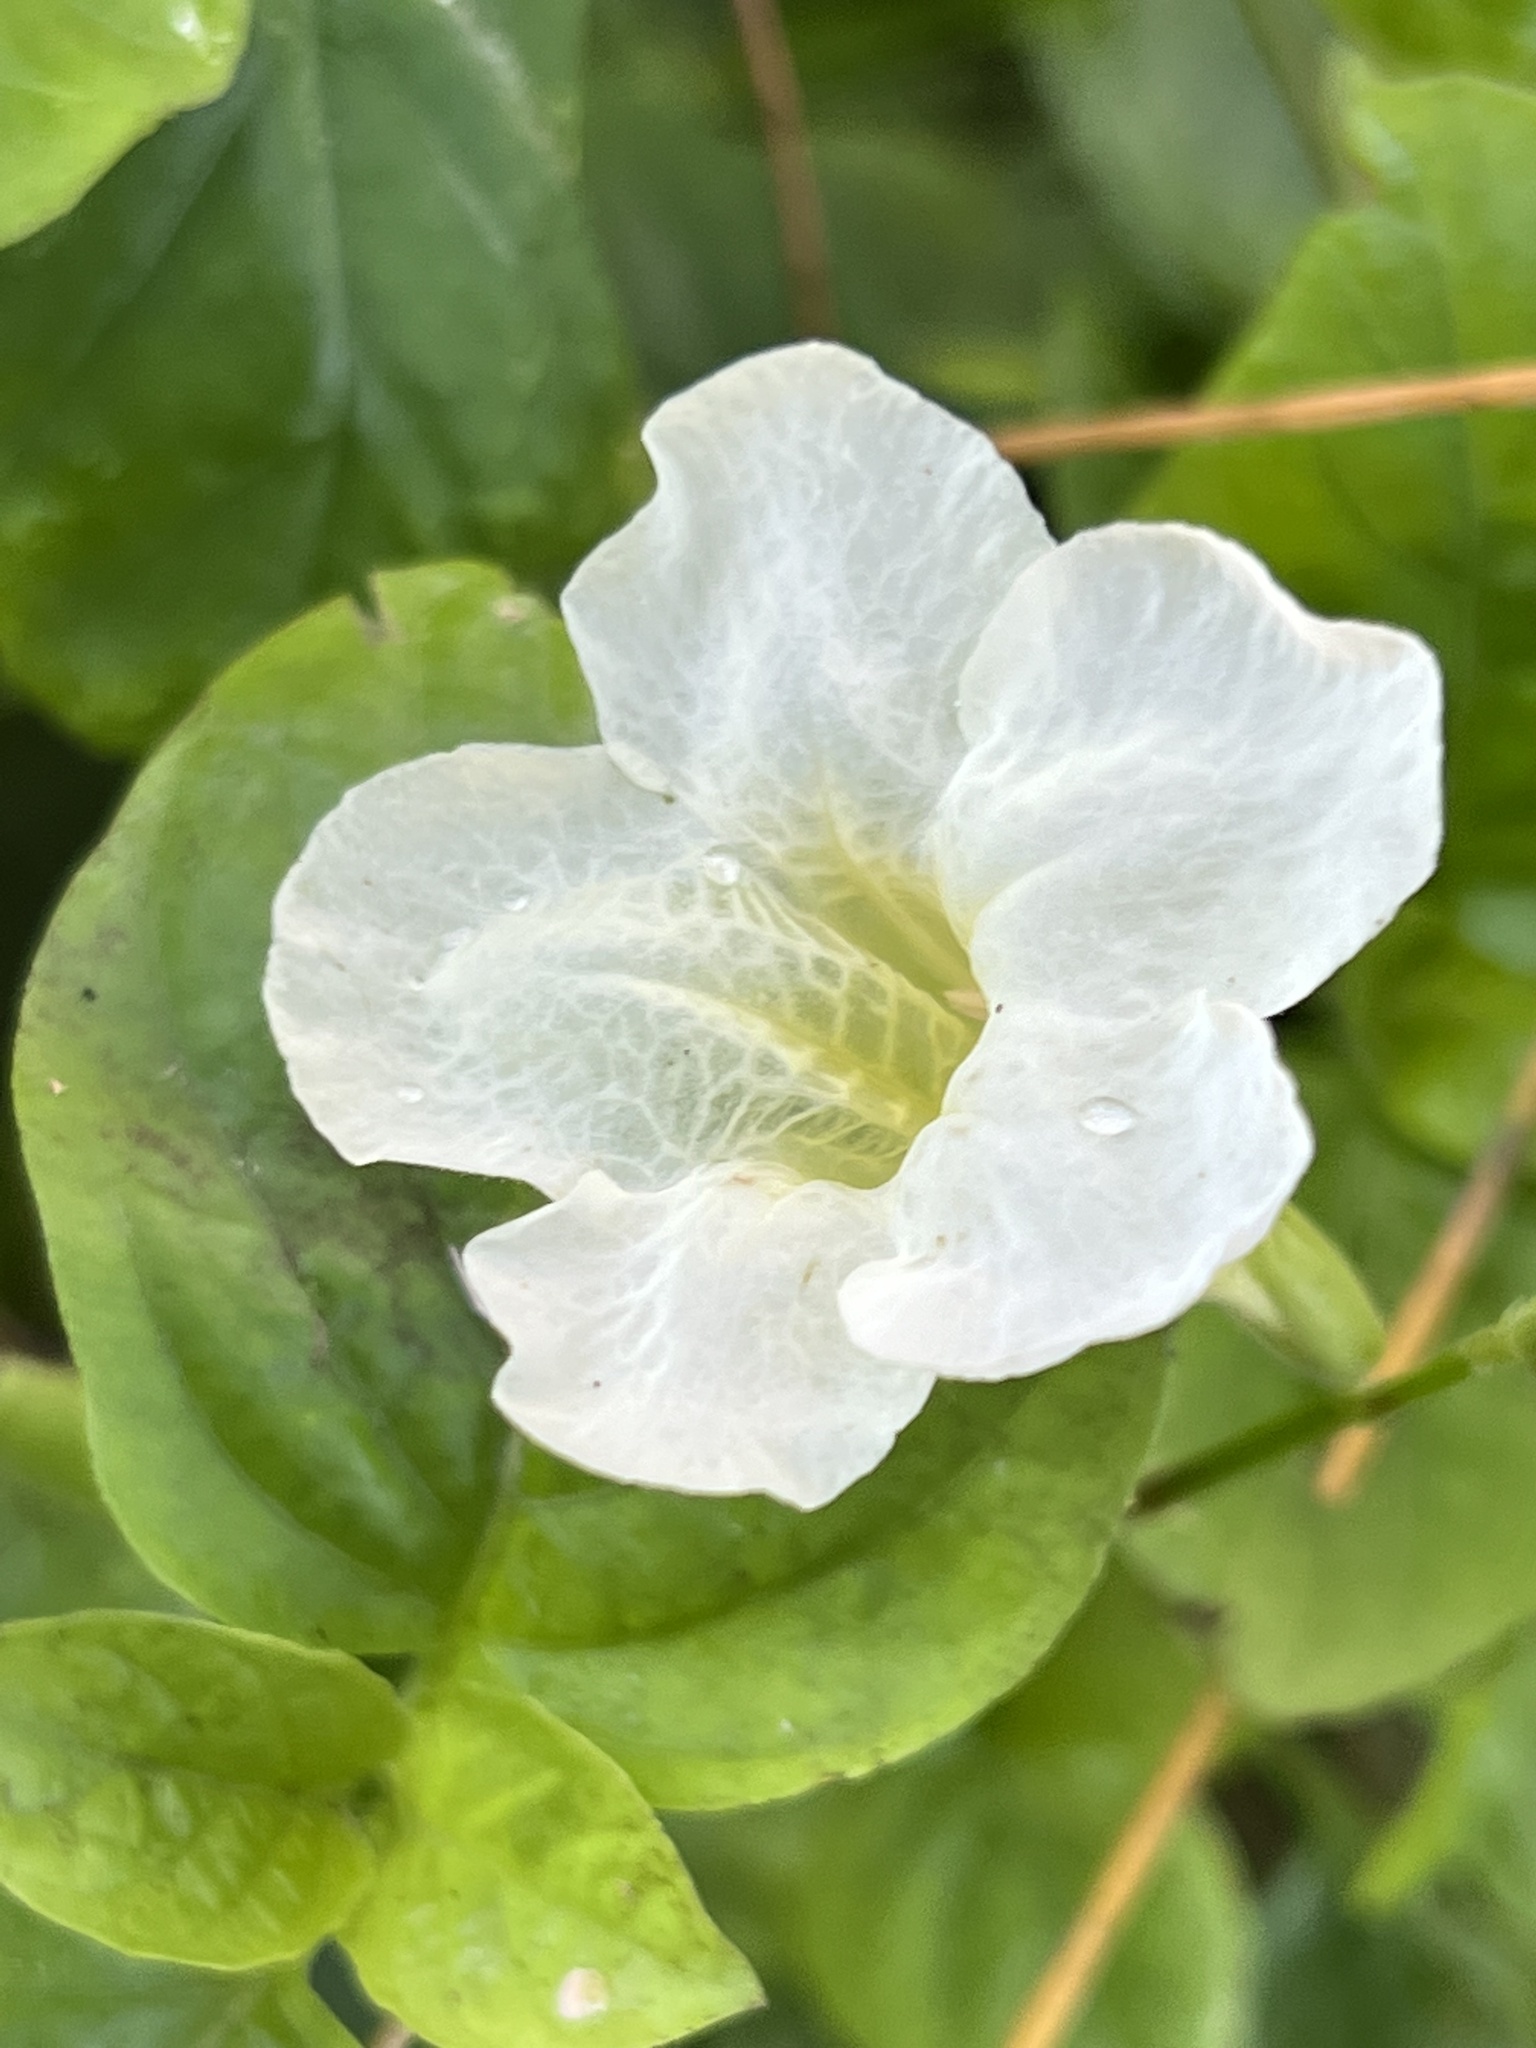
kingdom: Plantae
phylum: Tracheophyta
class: Magnoliopsida
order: Lamiales
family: Acanthaceae
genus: Asystasia
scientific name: Asystasia gangetica
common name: Chinese violet
